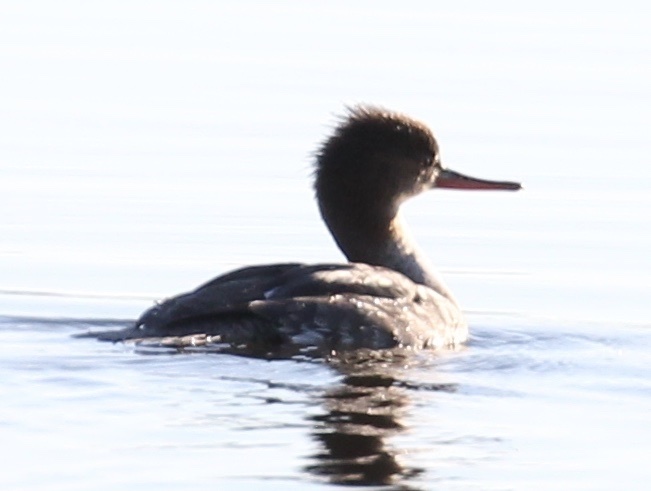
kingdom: Animalia
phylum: Chordata
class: Aves
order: Anseriformes
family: Anatidae
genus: Mergus
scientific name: Mergus serrator
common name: Red-breasted merganser
